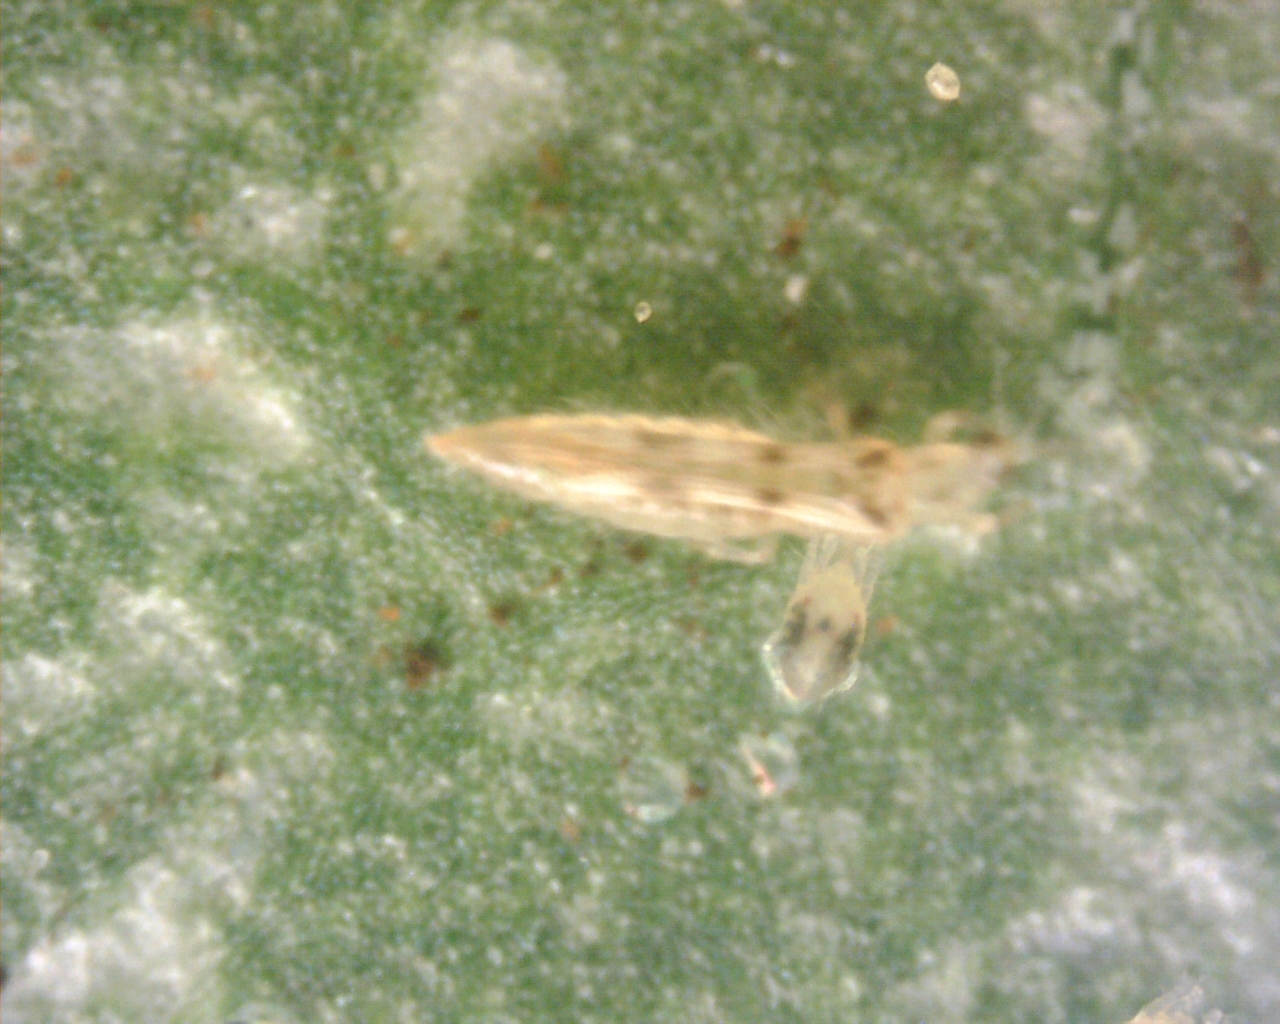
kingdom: Animalia
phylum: Arthropoda
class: Insecta
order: Thysanoptera
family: Thripidae
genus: Scolothrips
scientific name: Scolothrips sexmaculatus
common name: Common thrip
